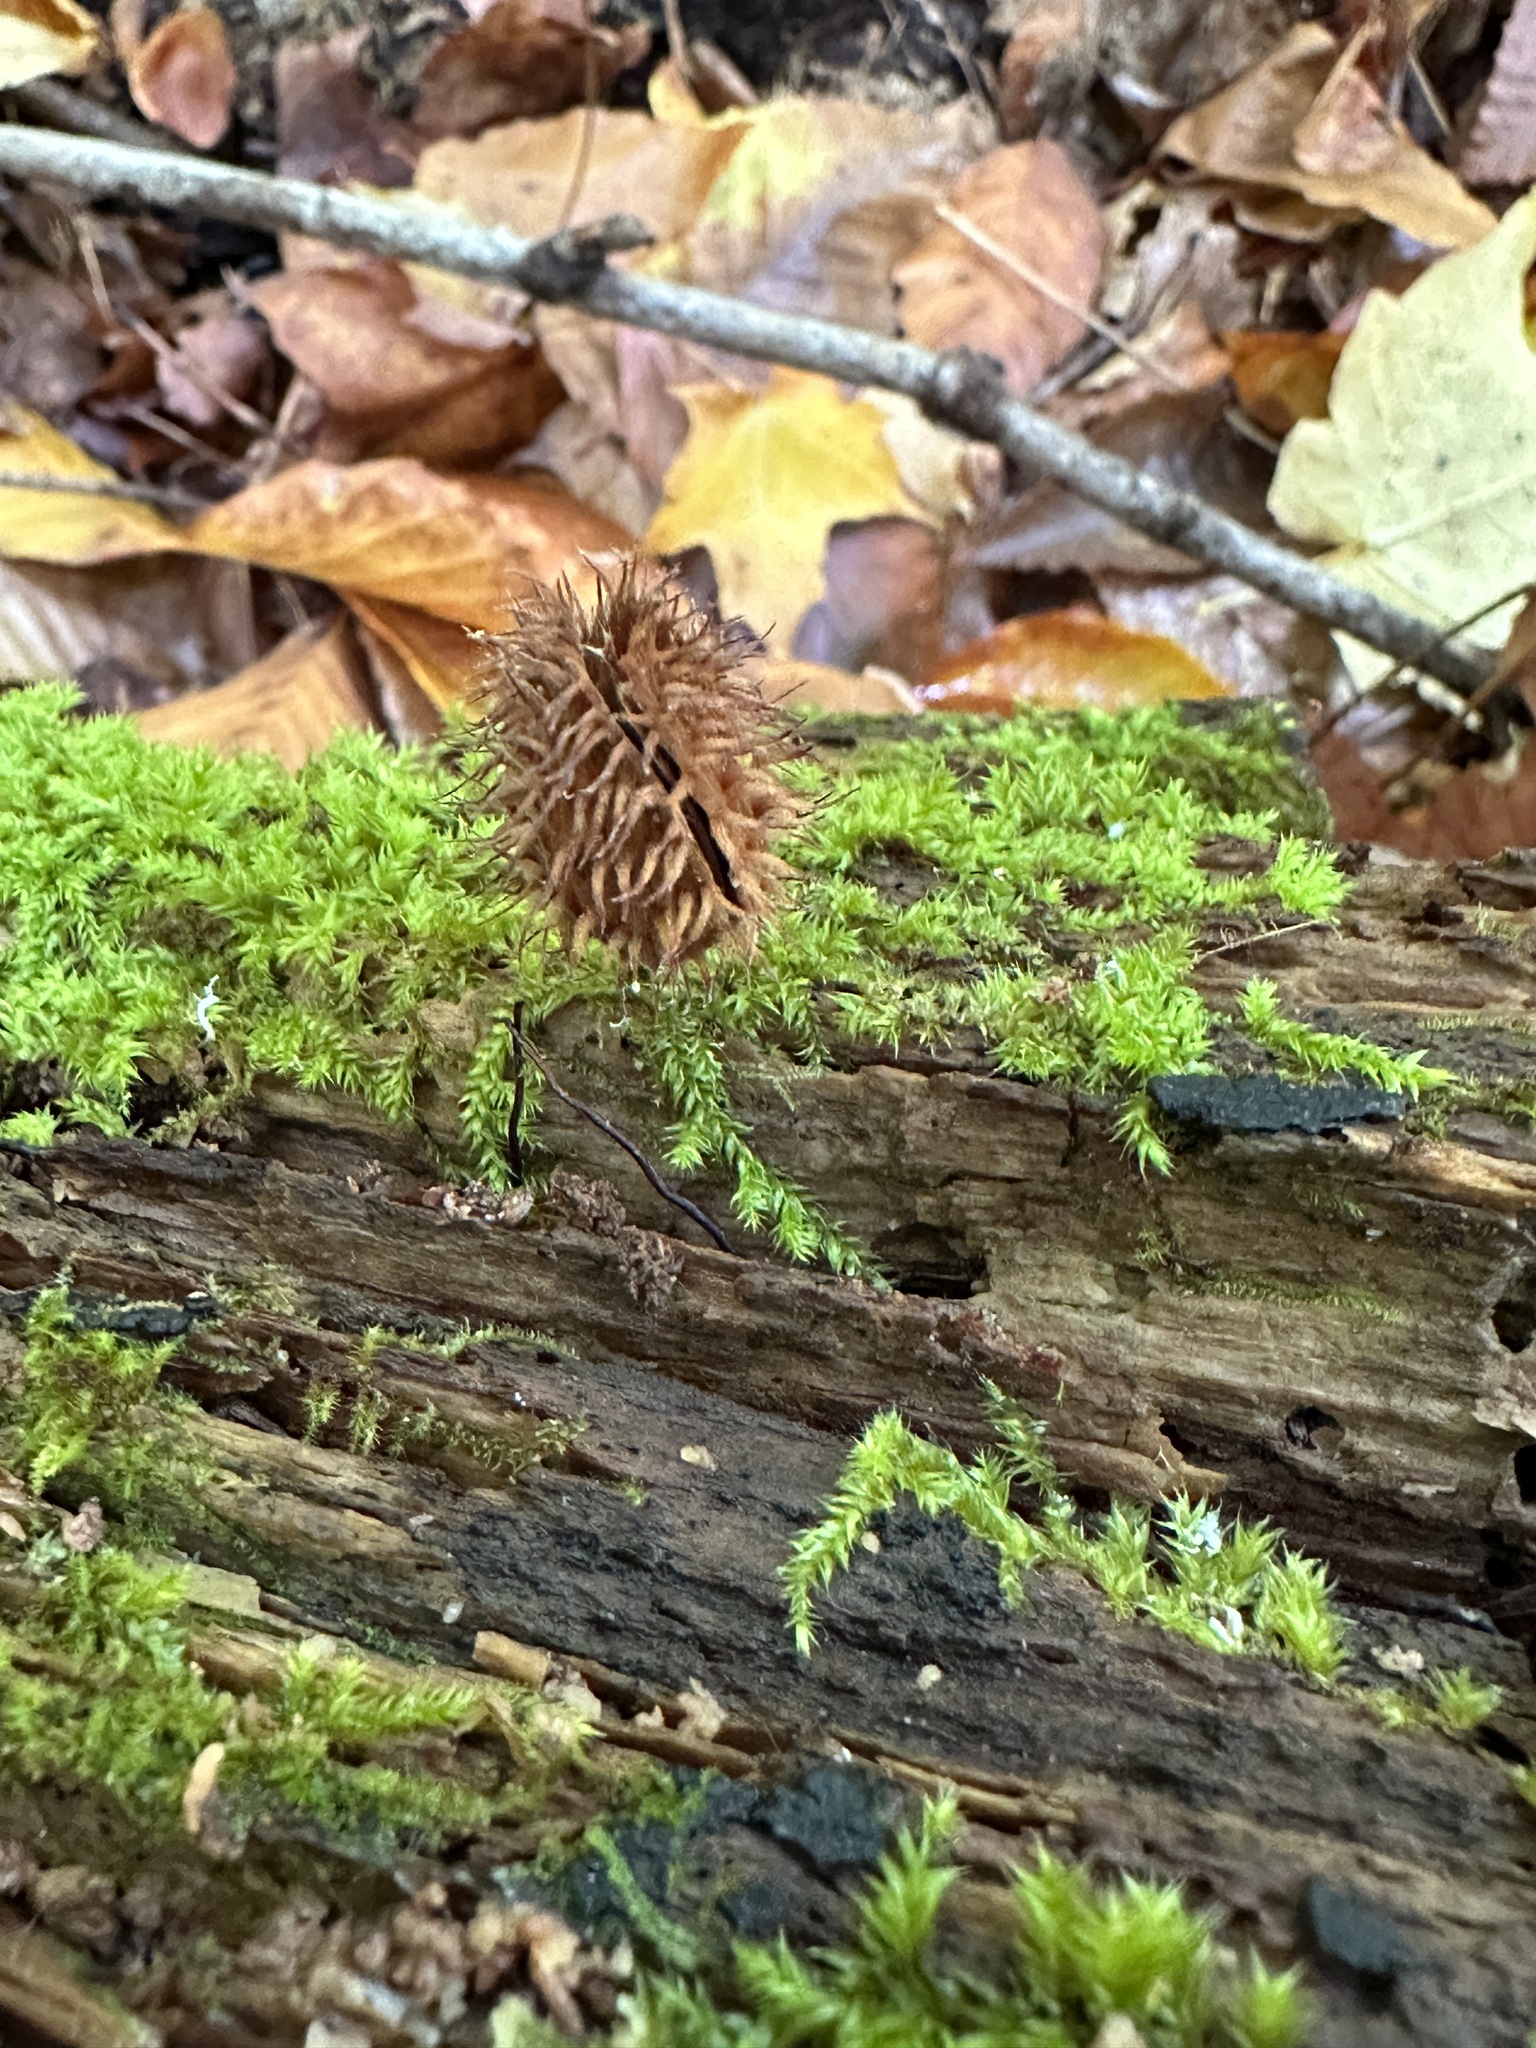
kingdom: Plantae
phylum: Tracheophyta
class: Magnoliopsida
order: Fagales
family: Fagaceae
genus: Fagus
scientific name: Fagus grandifolia
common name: American beech
